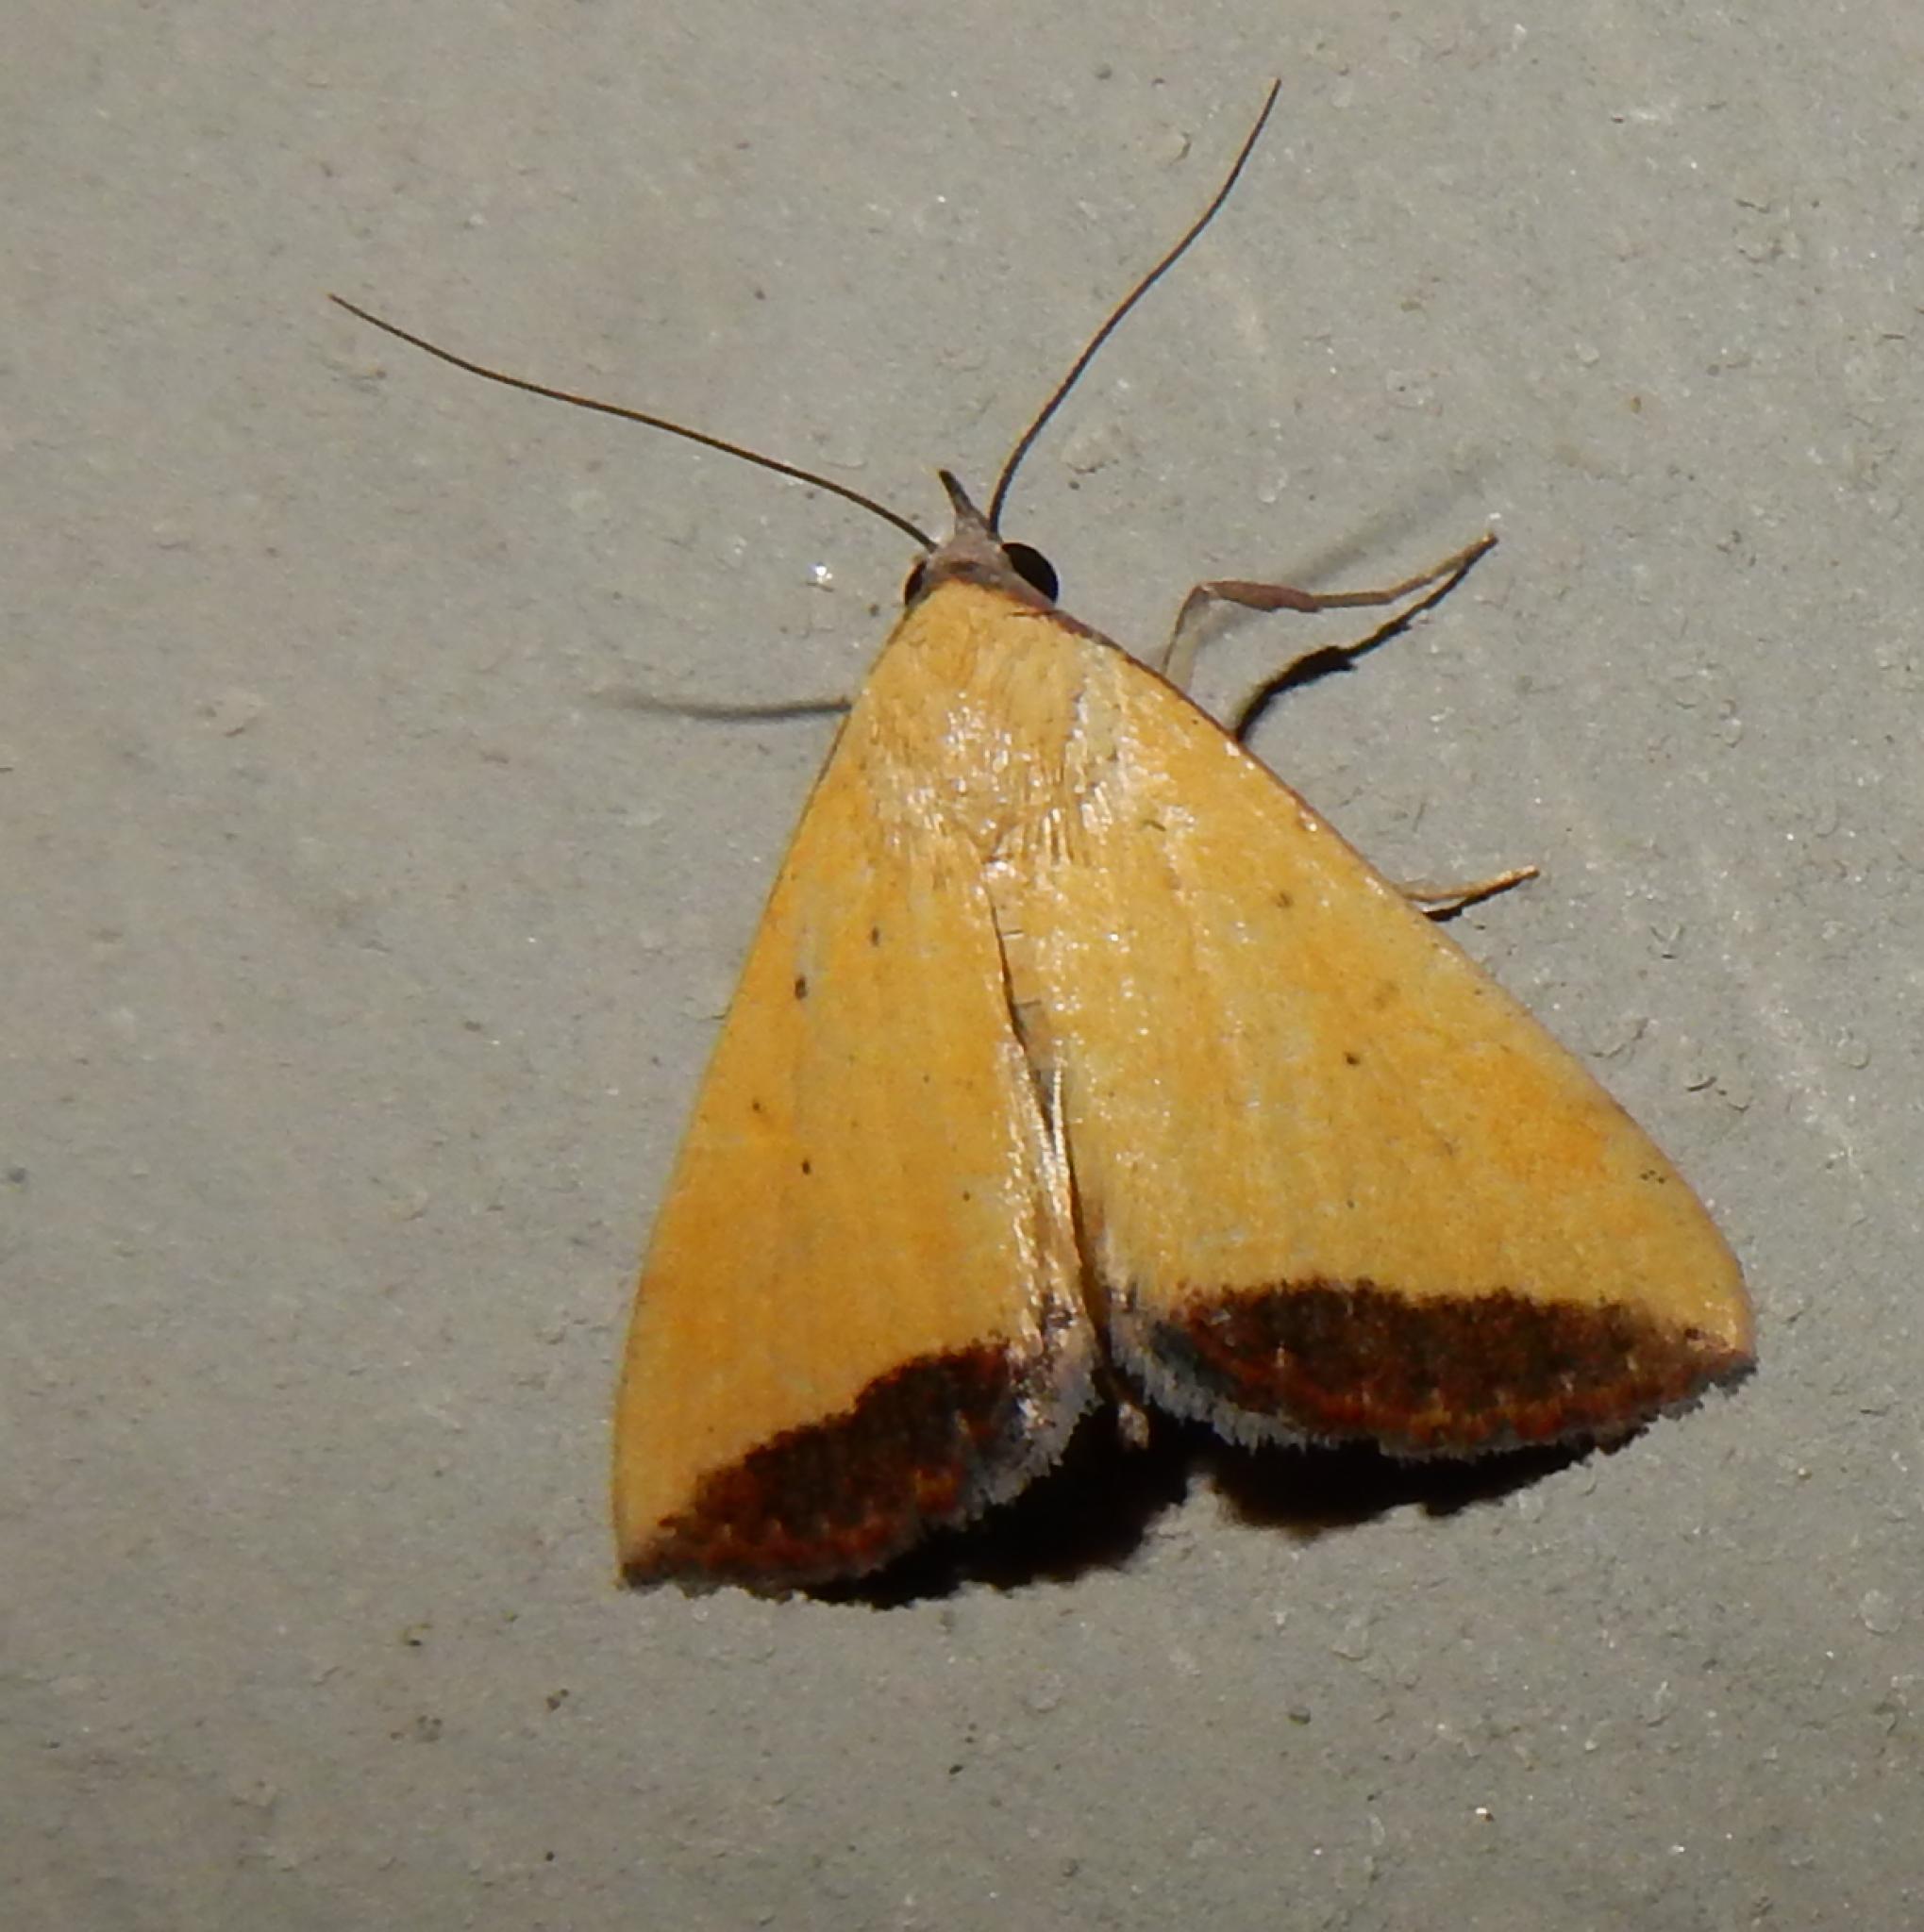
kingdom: Animalia
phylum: Arthropoda
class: Insecta
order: Lepidoptera
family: Erebidae
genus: Phytometra
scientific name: Phytometra subflavalis
